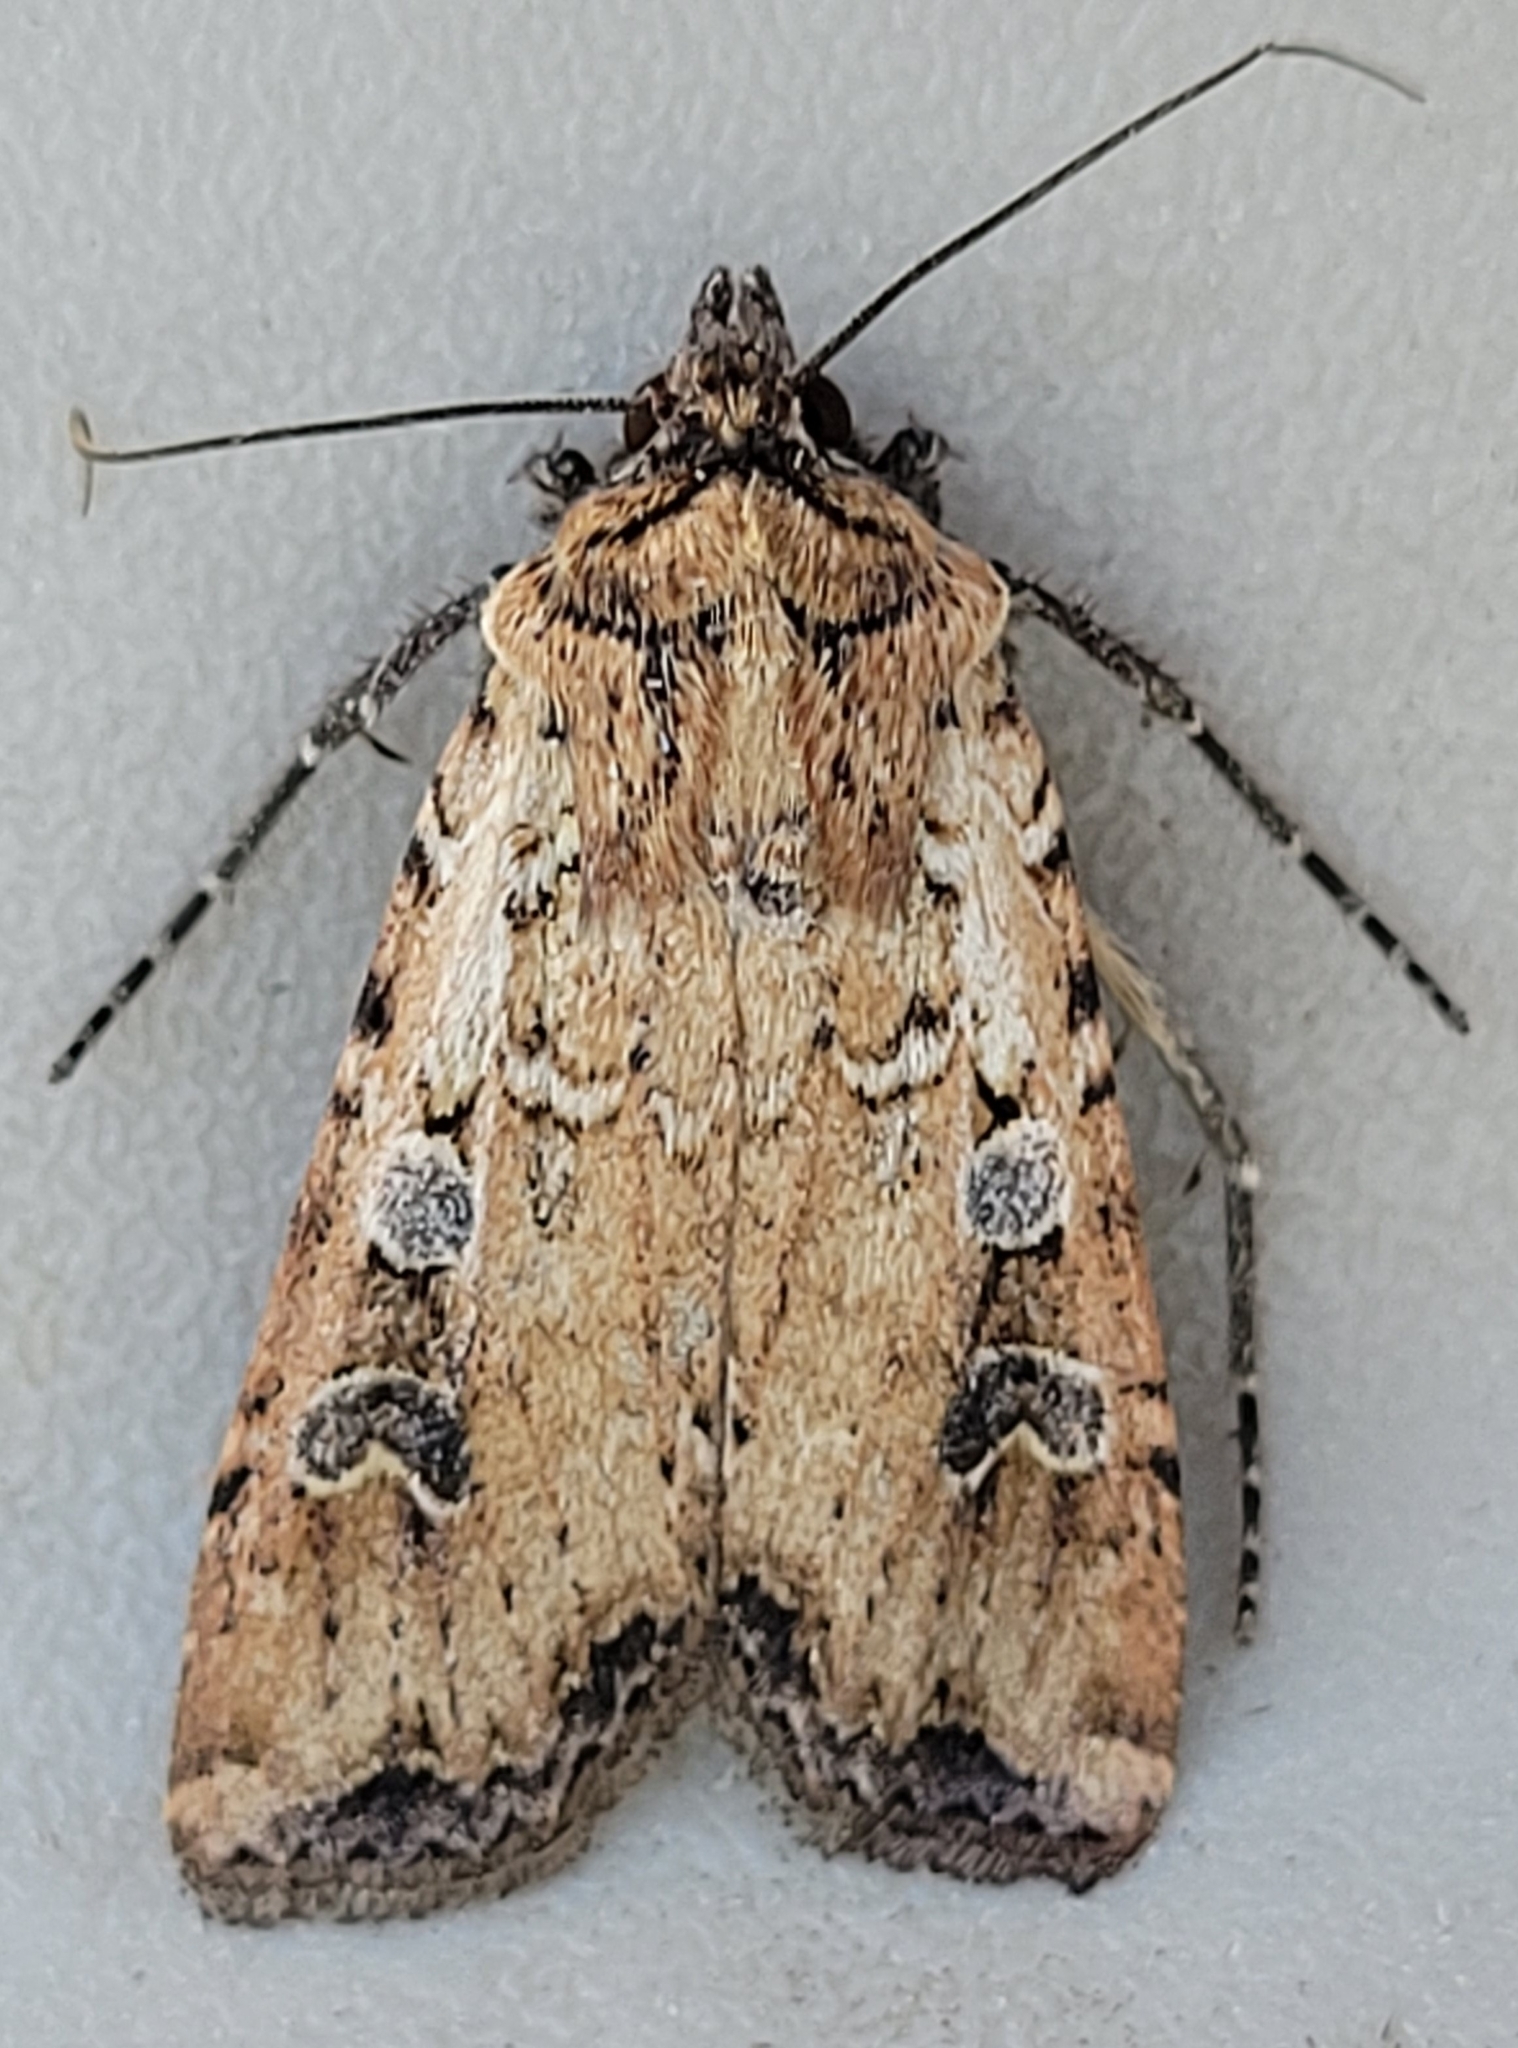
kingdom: Animalia
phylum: Arthropoda
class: Insecta
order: Lepidoptera
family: Noctuidae
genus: Euxoa
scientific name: Euxoa ochrogaster
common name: Red-backed cutworm moth
